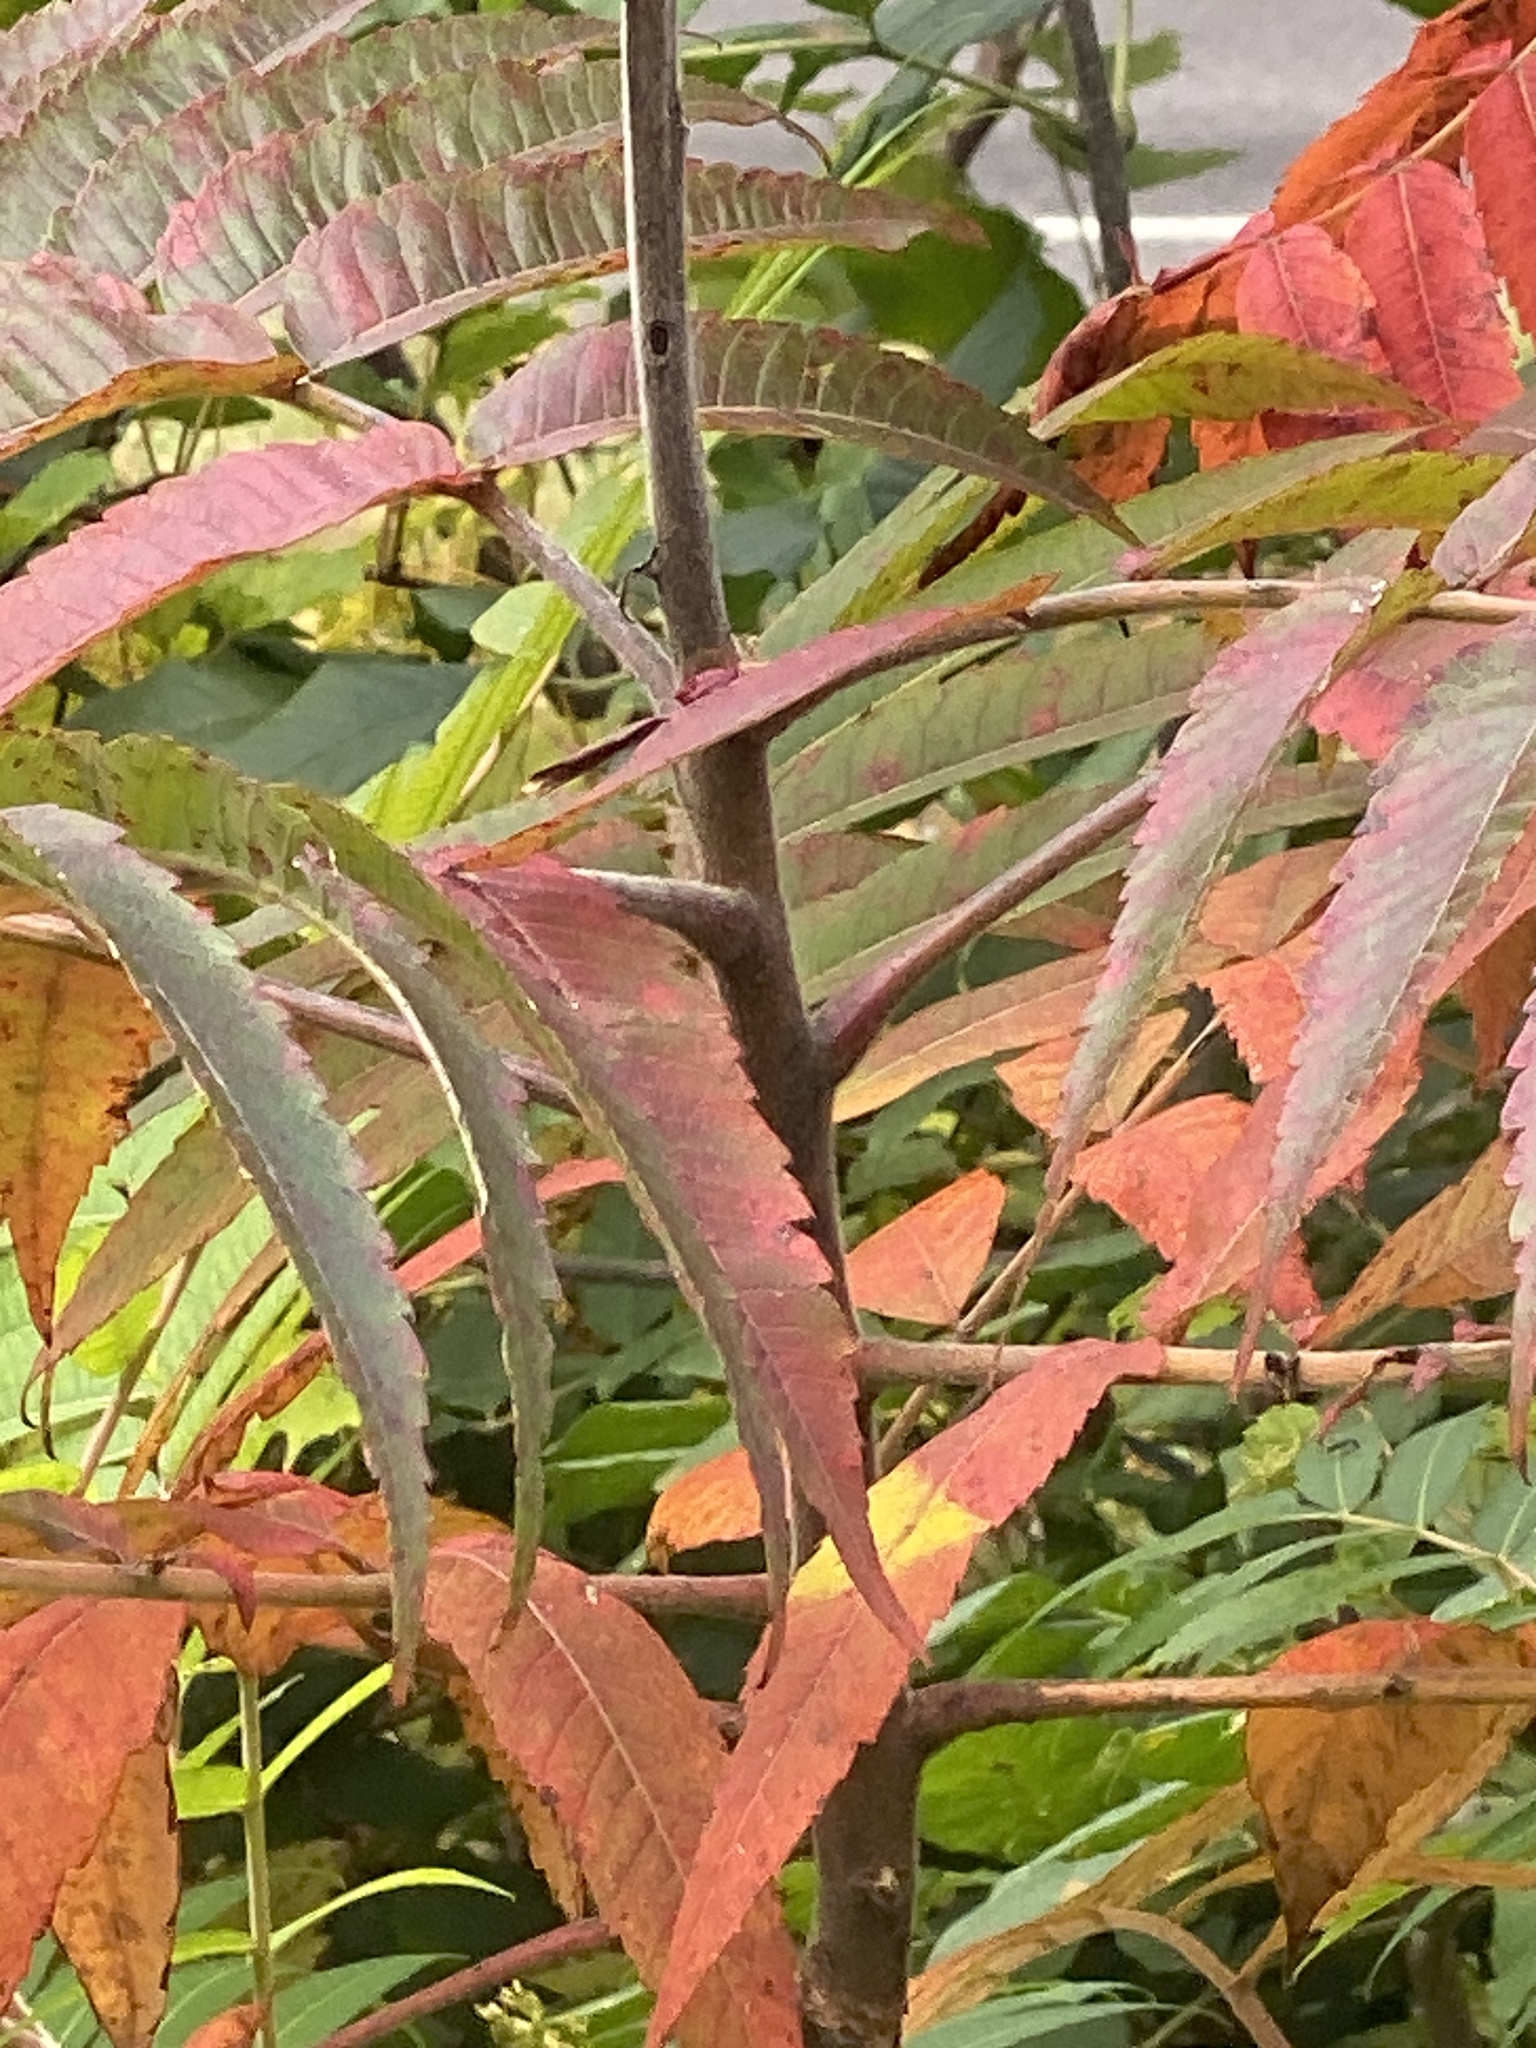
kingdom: Plantae
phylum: Tracheophyta
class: Magnoliopsida
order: Sapindales
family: Anacardiaceae
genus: Rhus
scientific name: Rhus typhina
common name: Staghorn sumac
